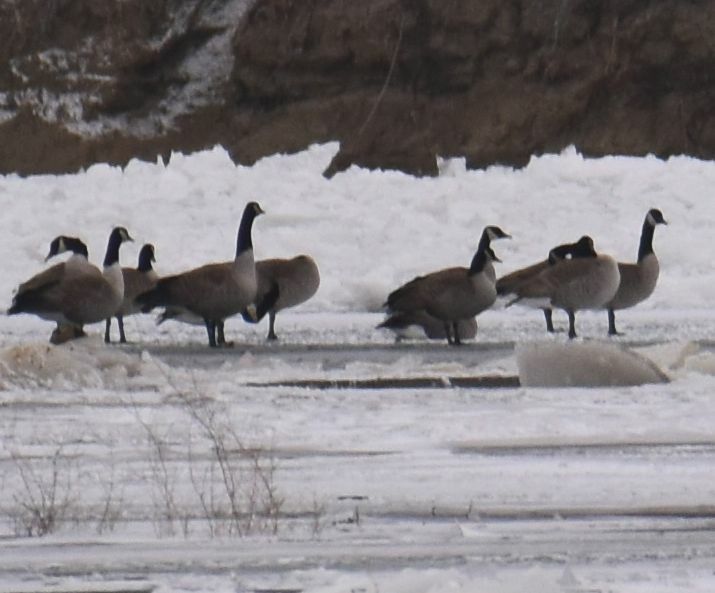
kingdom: Animalia
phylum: Chordata
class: Aves
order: Anseriformes
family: Anatidae
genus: Branta
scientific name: Branta canadensis
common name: Canada goose
